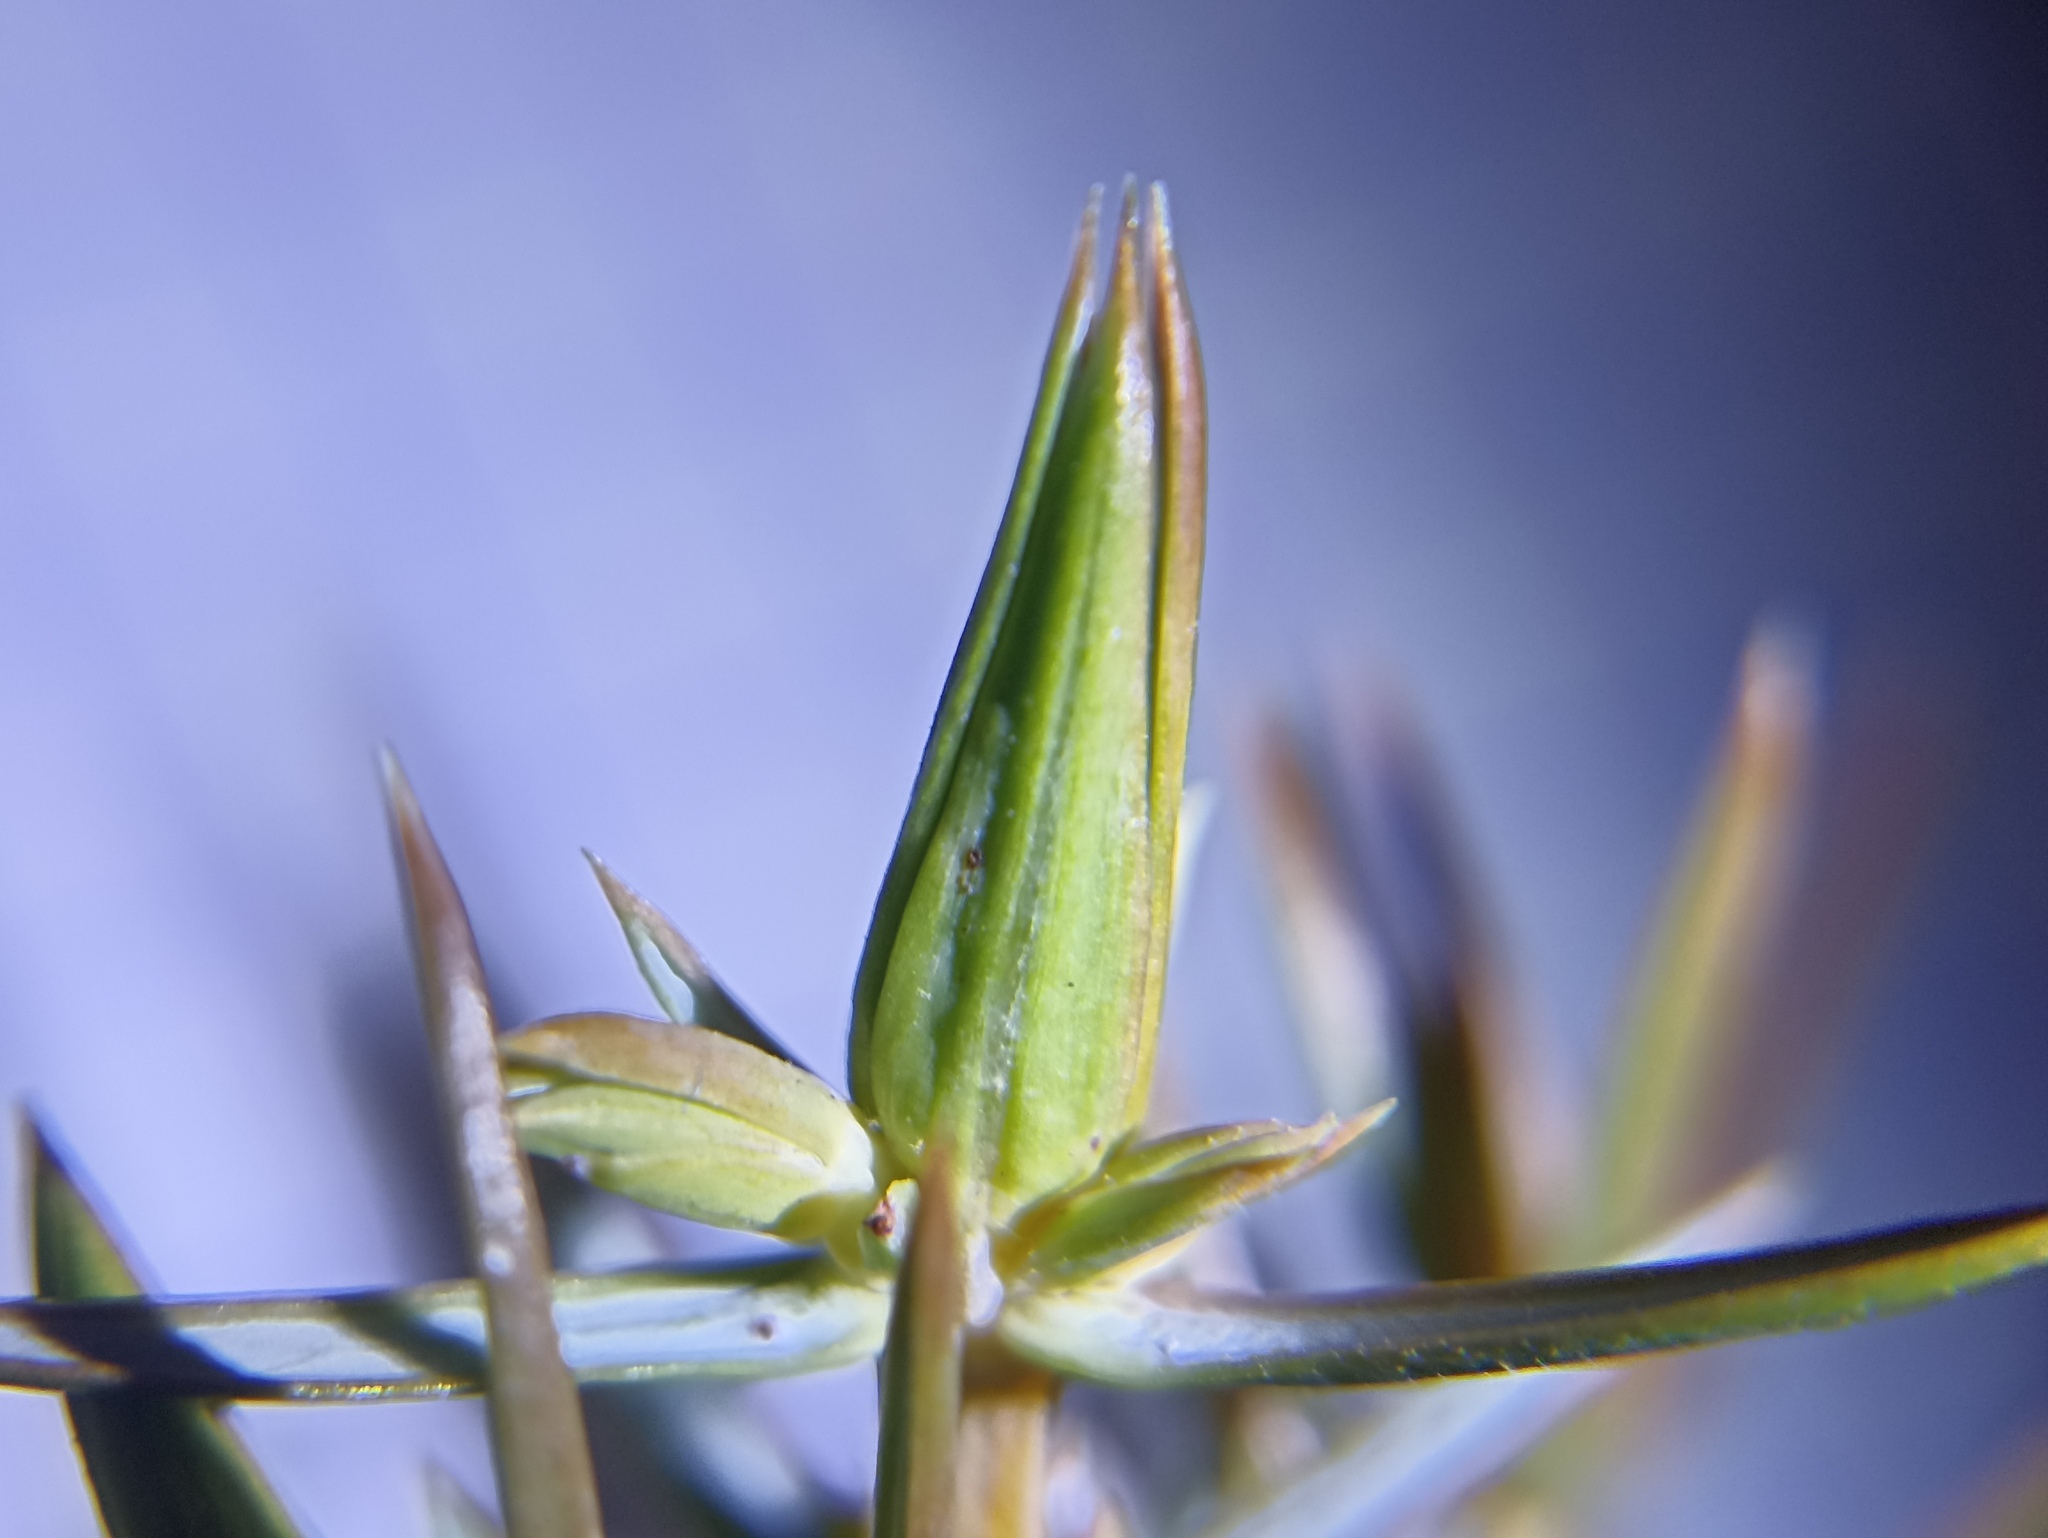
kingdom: Animalia
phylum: Arthropoda
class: Insecta
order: Diptera
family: Cecidomyiidae
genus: Oligotrophus
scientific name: Oligotrophus panteli
